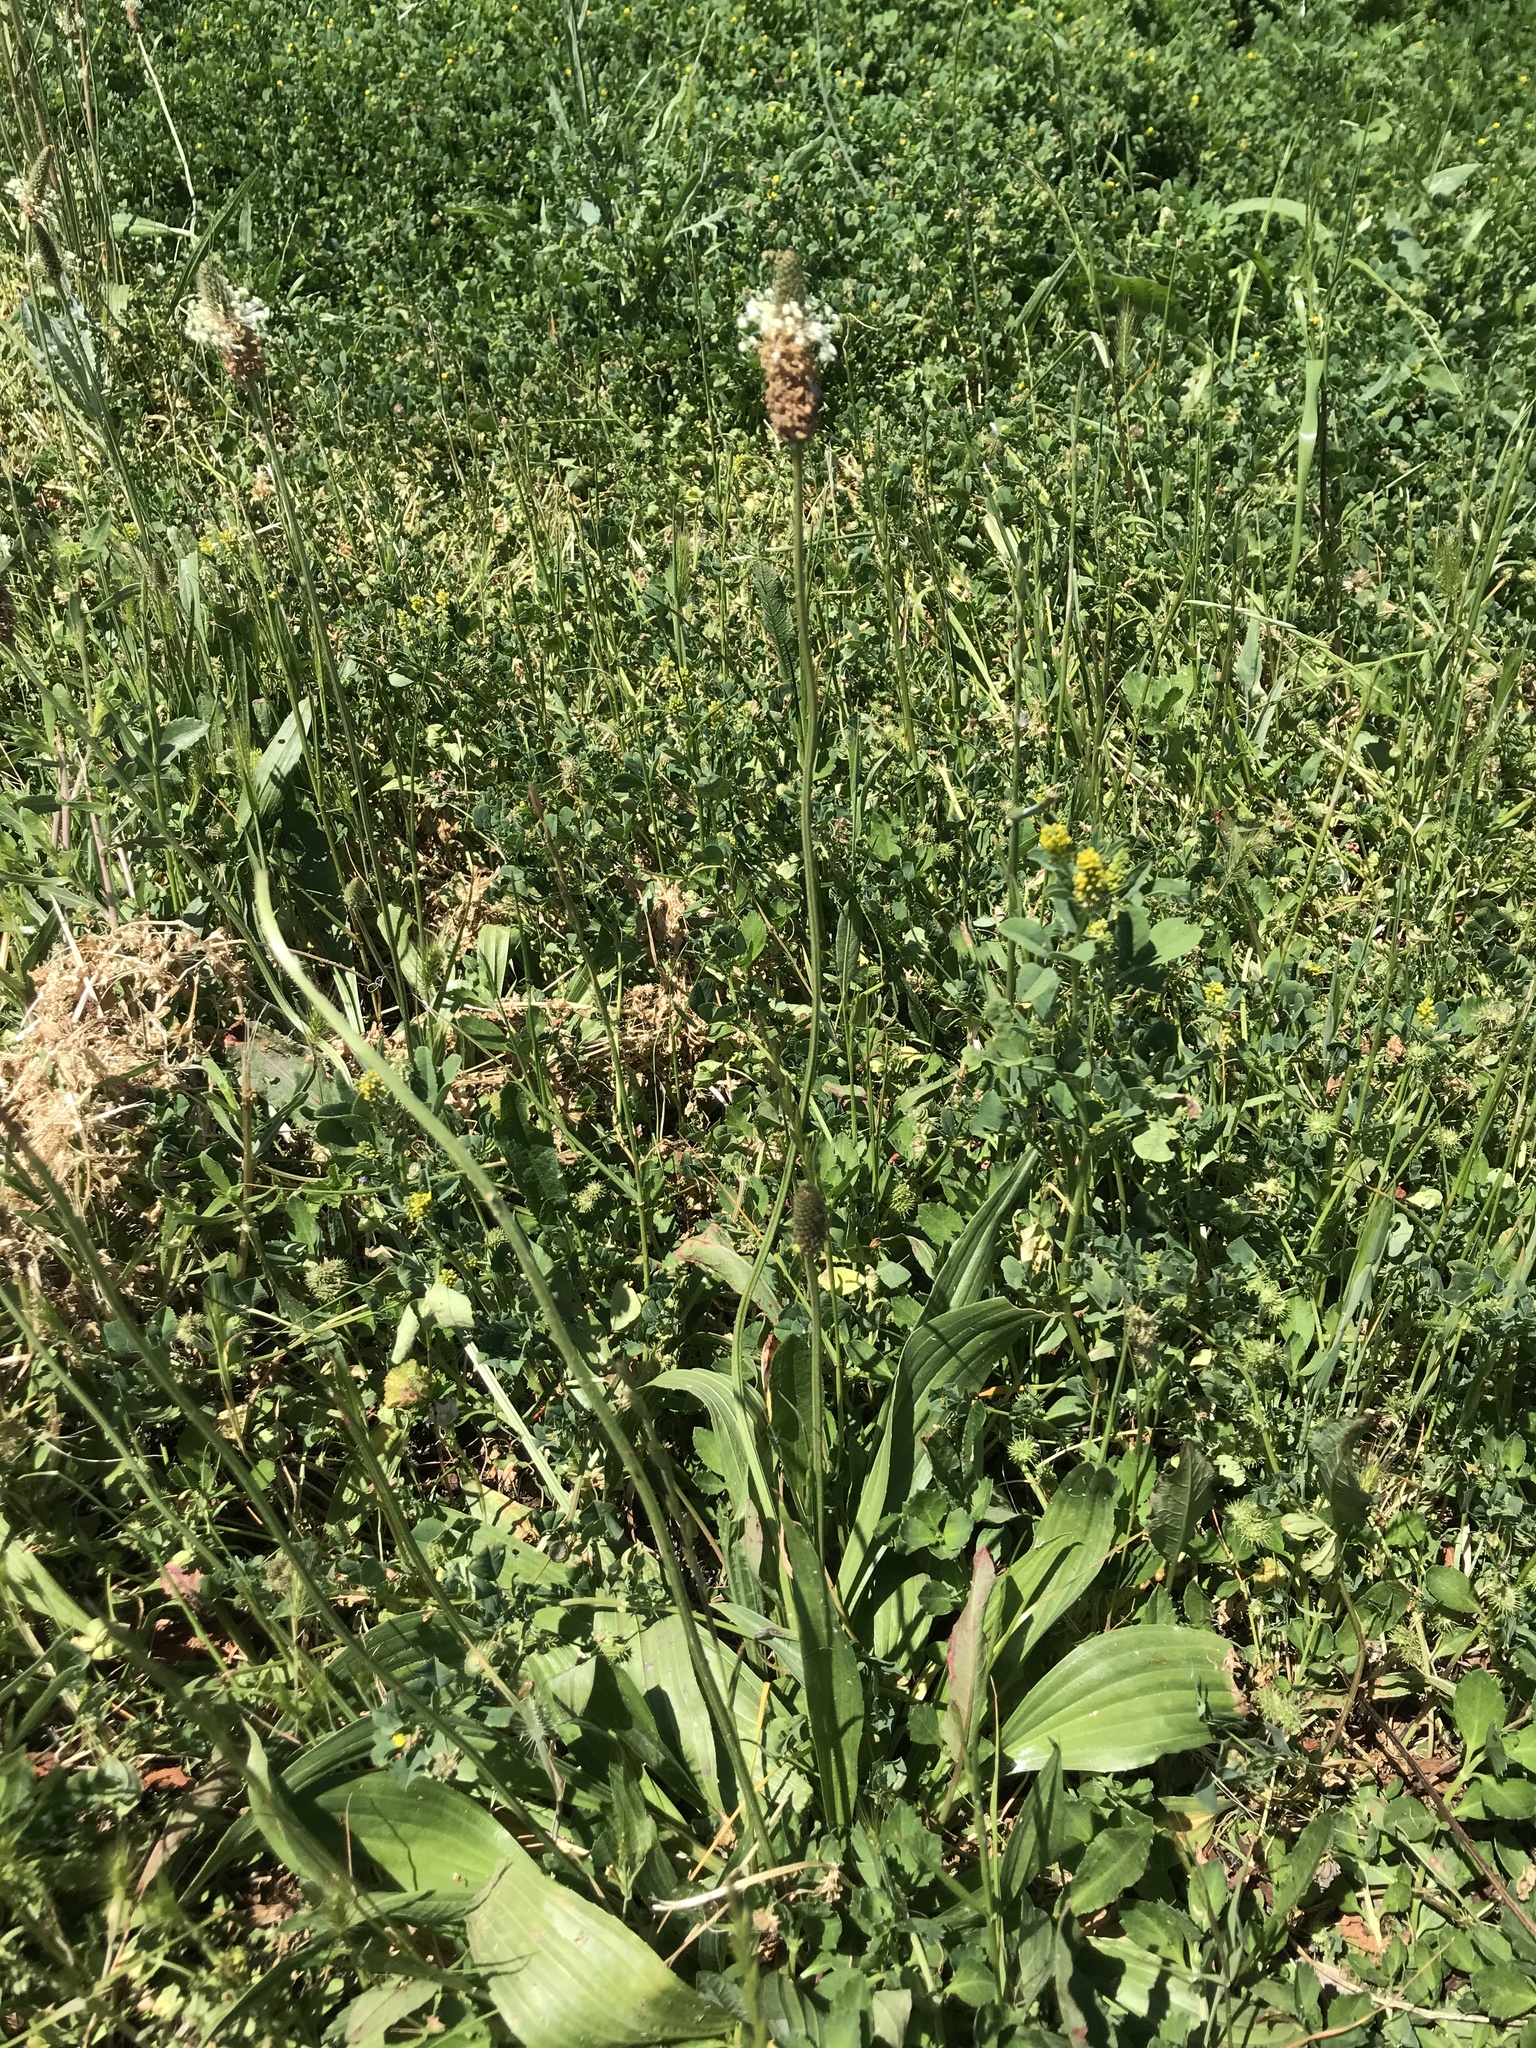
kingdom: Plantae
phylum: Tracheophyta
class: Magnoliopsida
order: Lamiales
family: Plantaginaceae
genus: Plantago
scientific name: Plantago lanceolata
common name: Ribwort plantain
